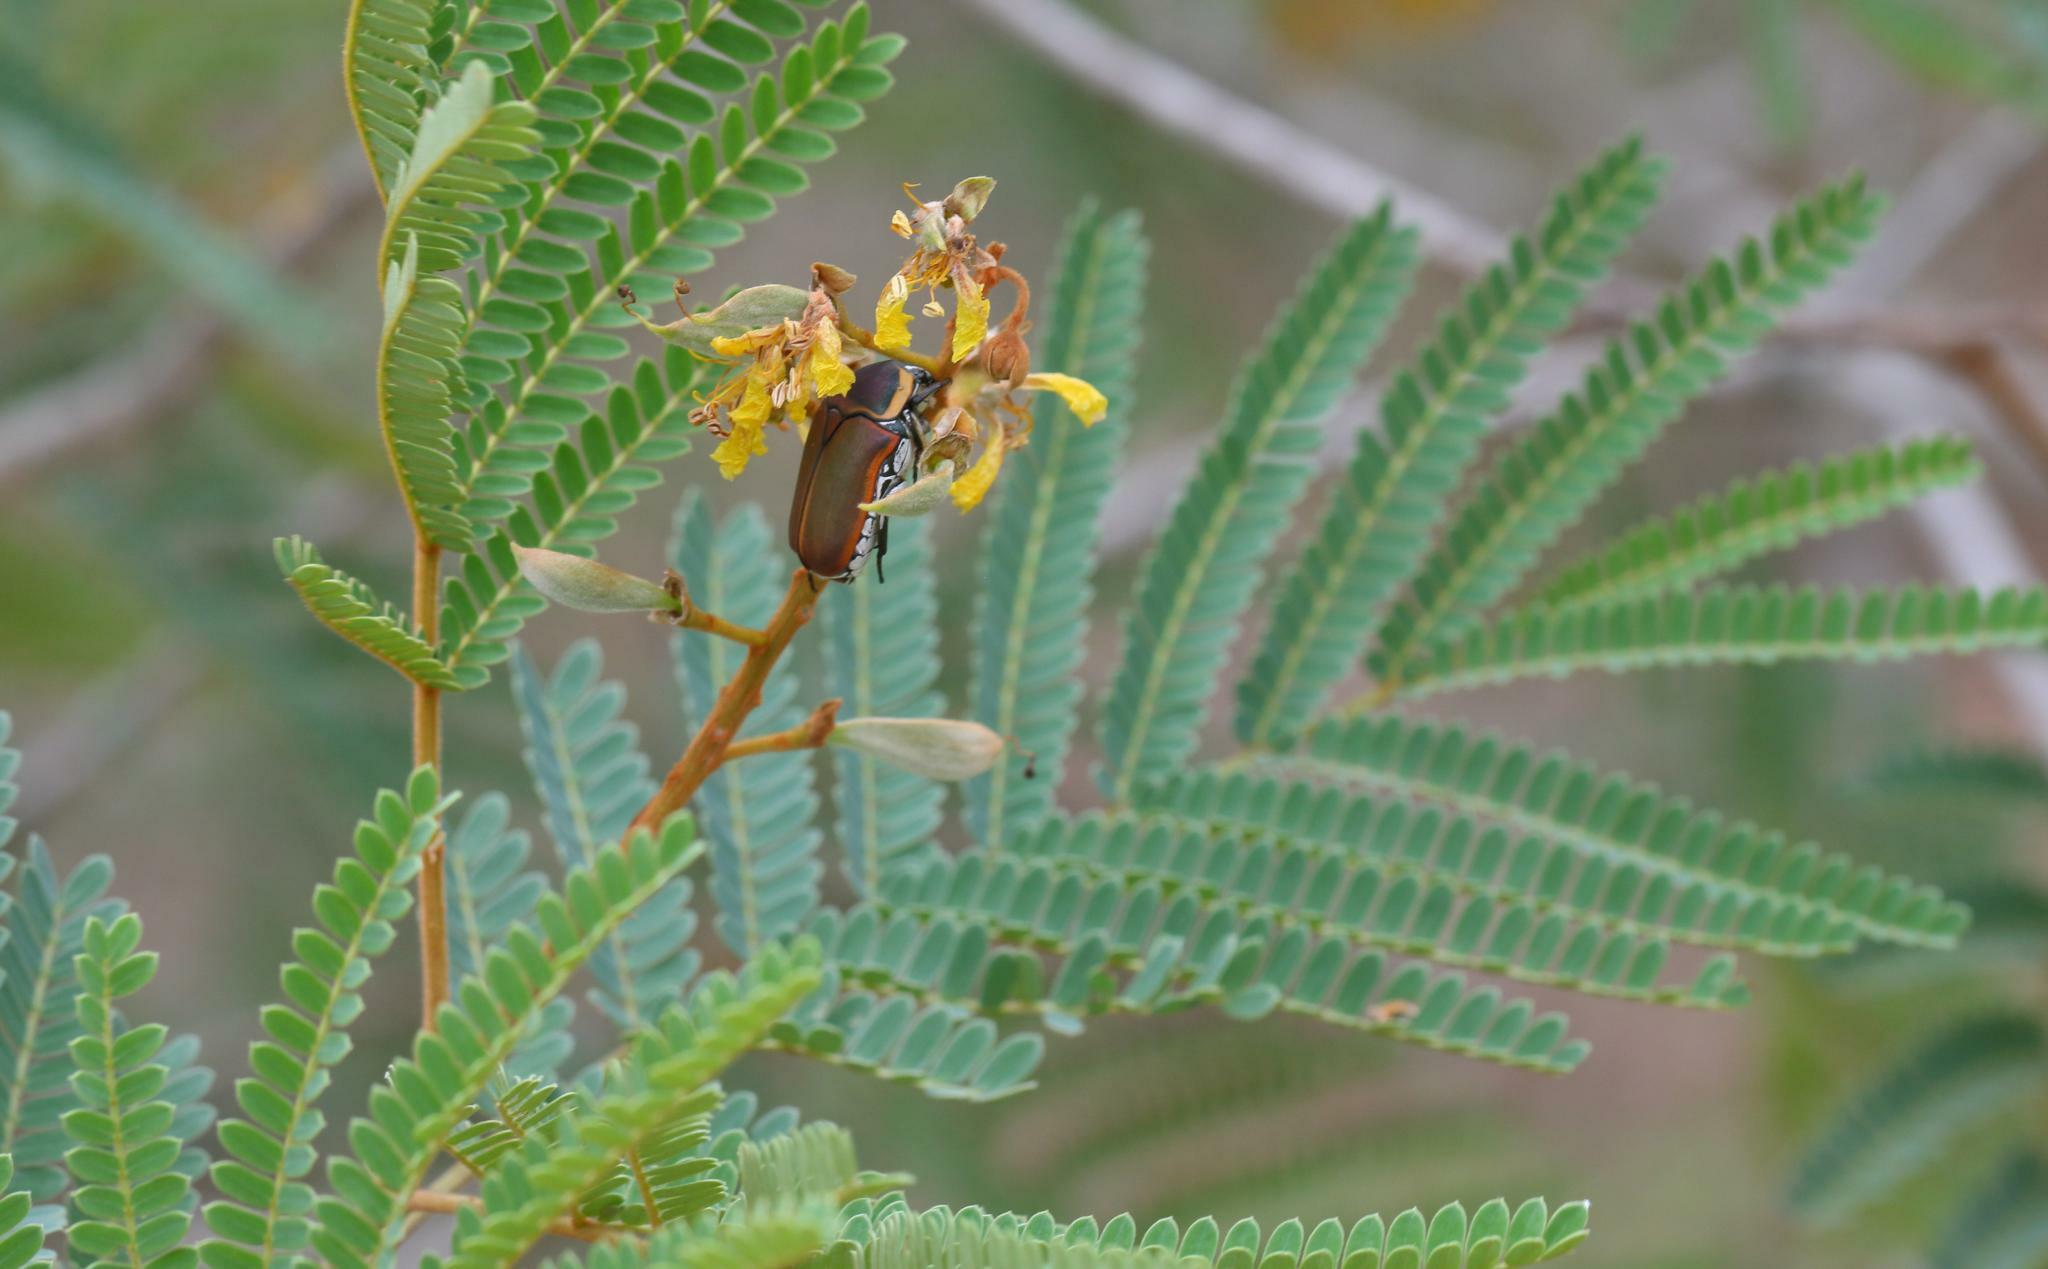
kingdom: Animalia
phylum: Arthropoda
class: Insecta
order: Coleoptera
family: Scarabaeidae
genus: Dischista
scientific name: Dischista cincta
